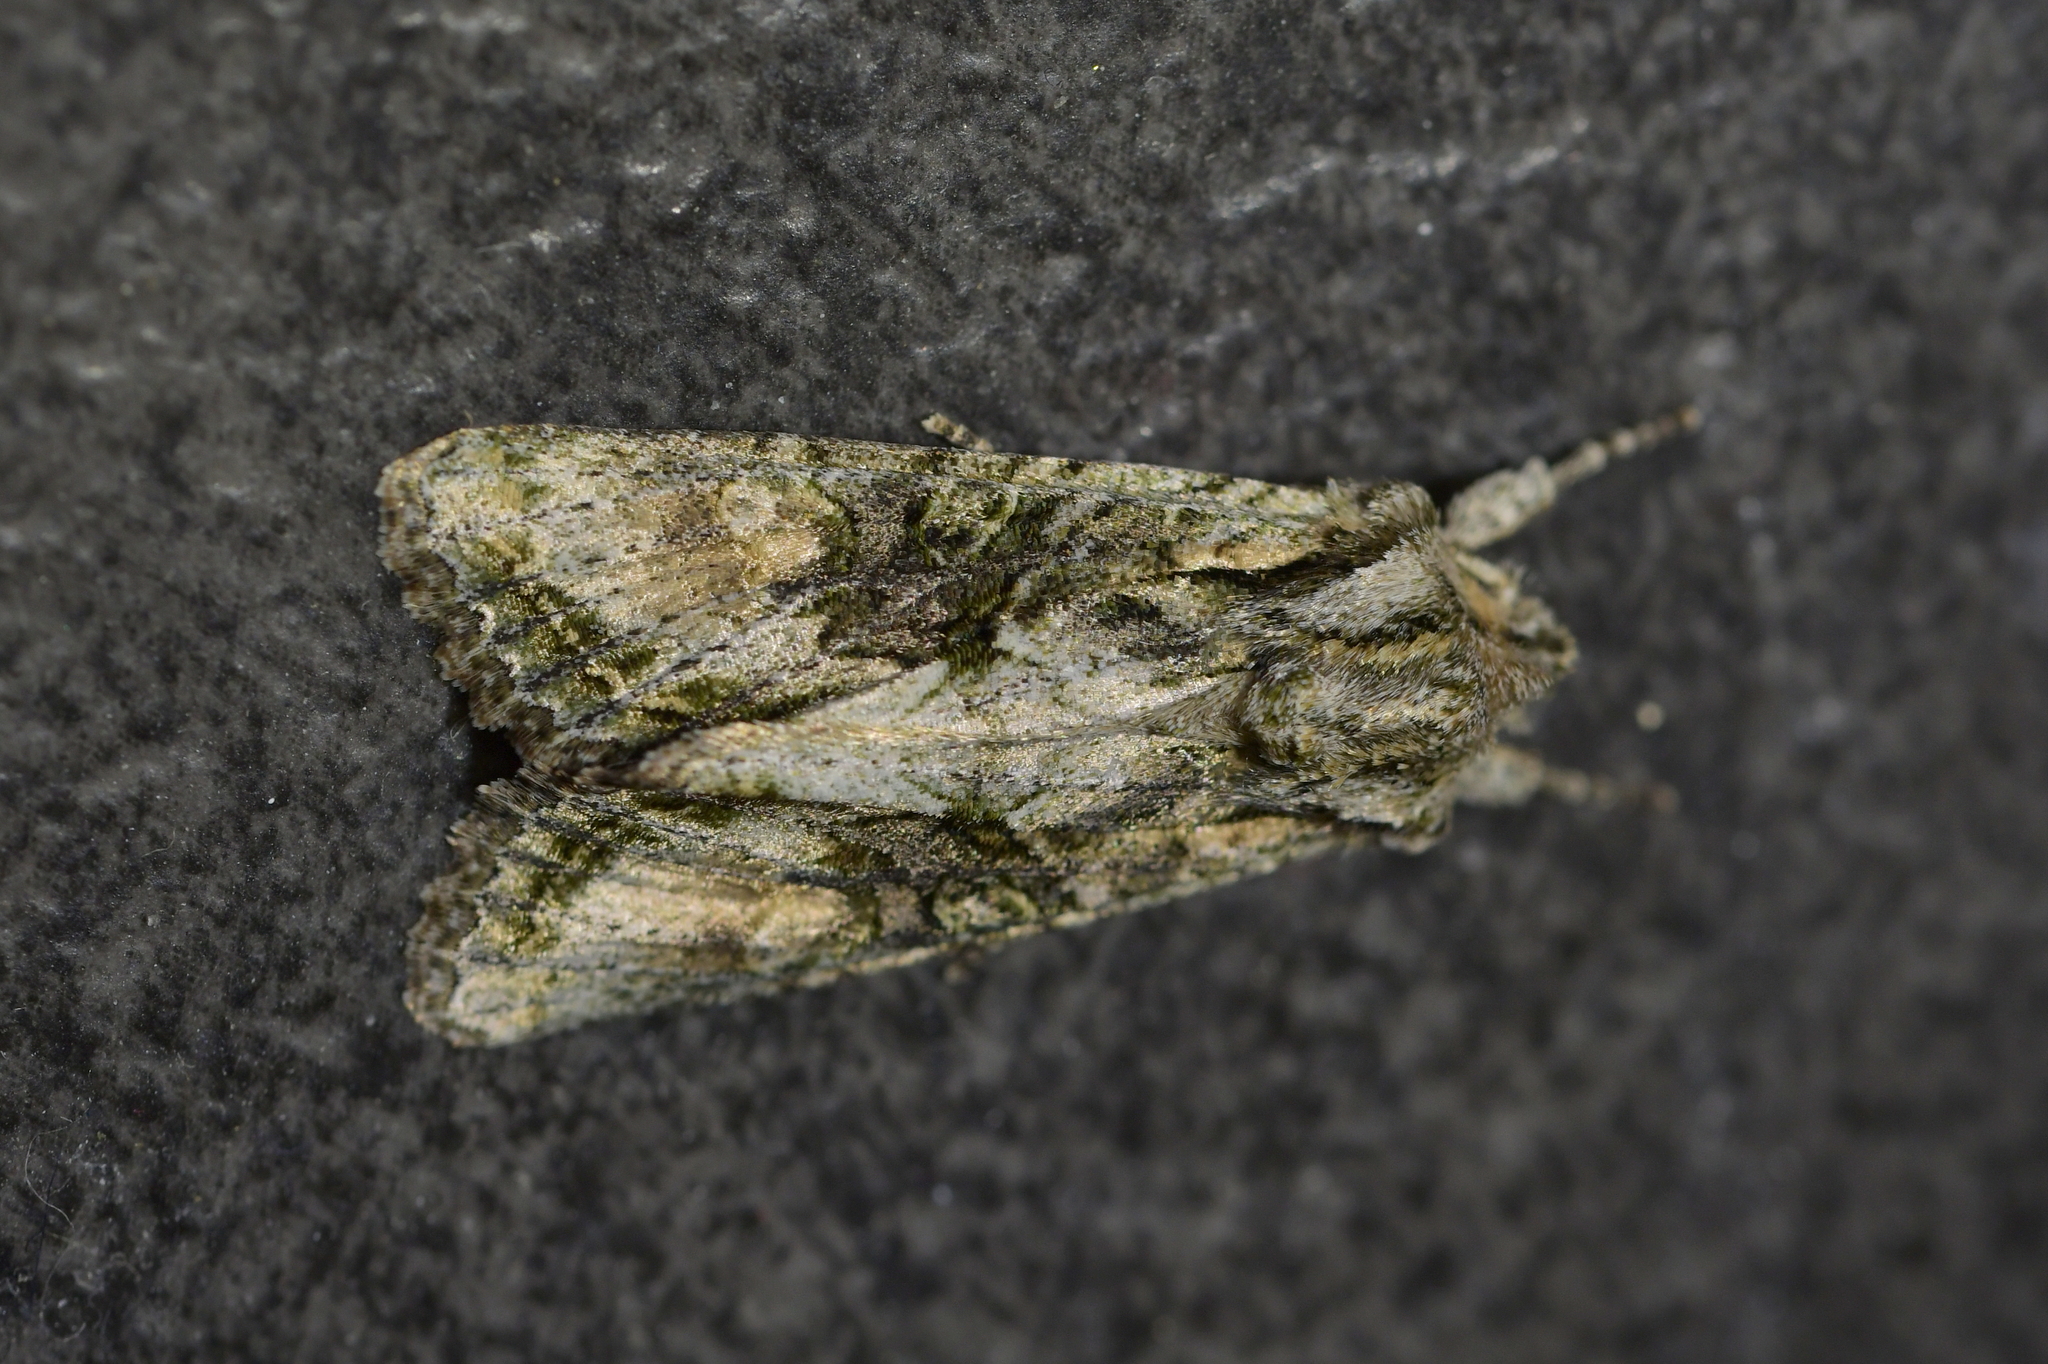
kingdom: Animalia
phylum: Arthropoda
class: Insecta
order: Lepidoptera
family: Noctuidae
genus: Ichneutica
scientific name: Ichneutica mutans
